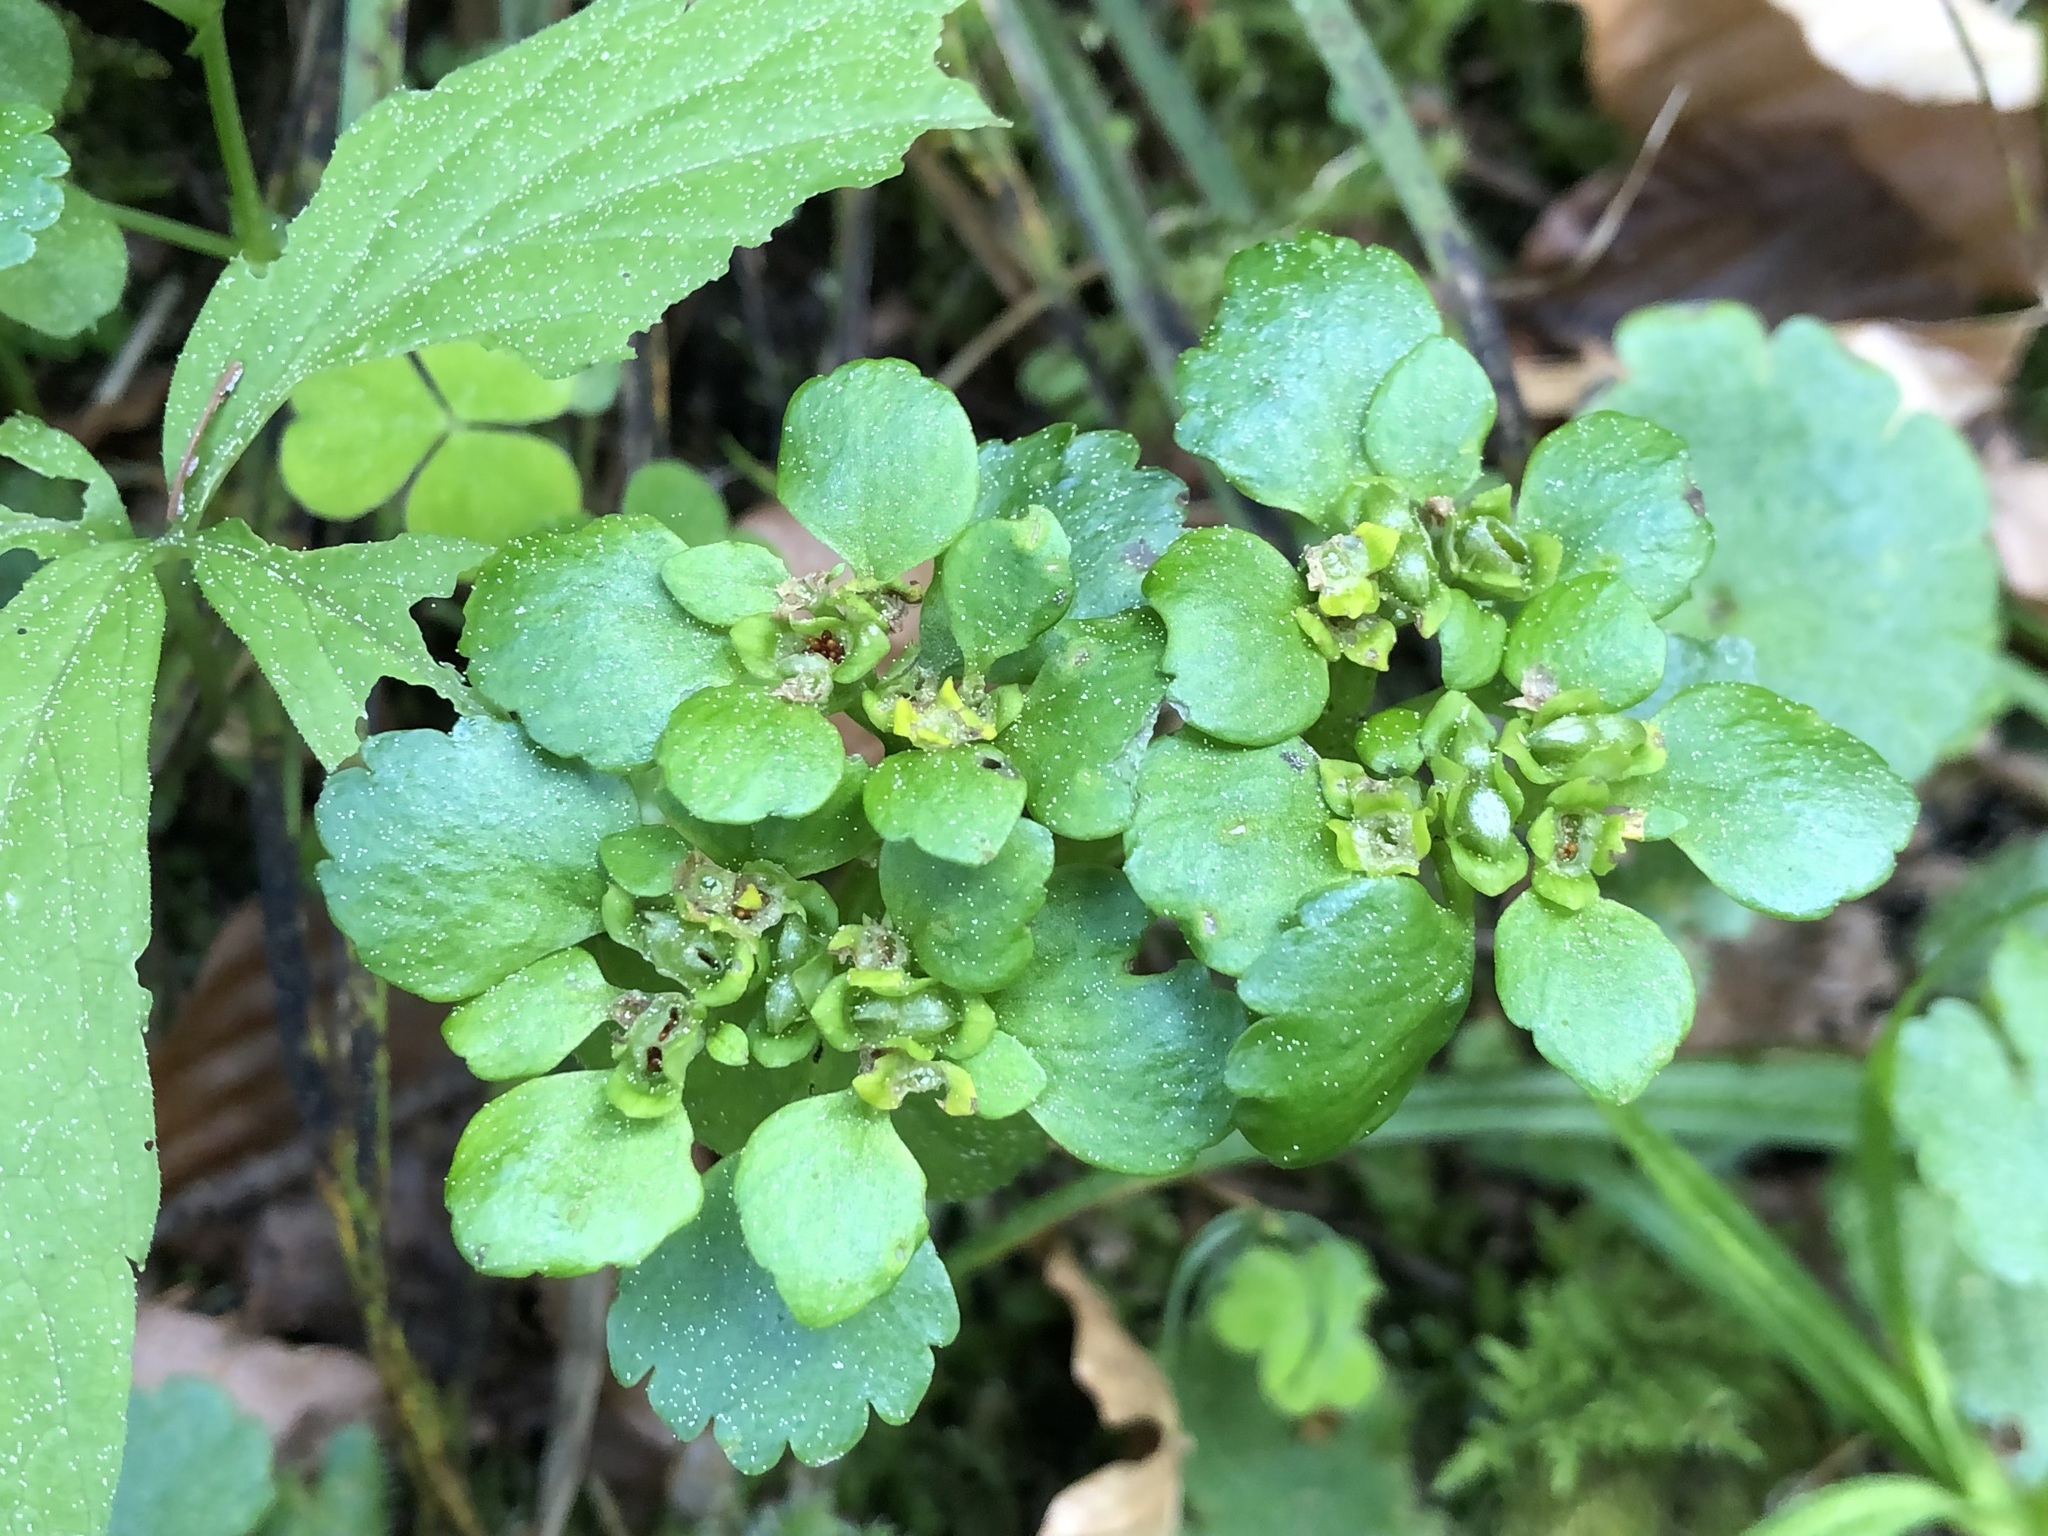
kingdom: Plantae
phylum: Tracheophyta
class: Magnoliopsida
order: Saxifragales
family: Saxifragaceae
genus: Chrysosplenium
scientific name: Chrysosplenium alternifolium
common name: Alternate-leaved golden-saxifrage
